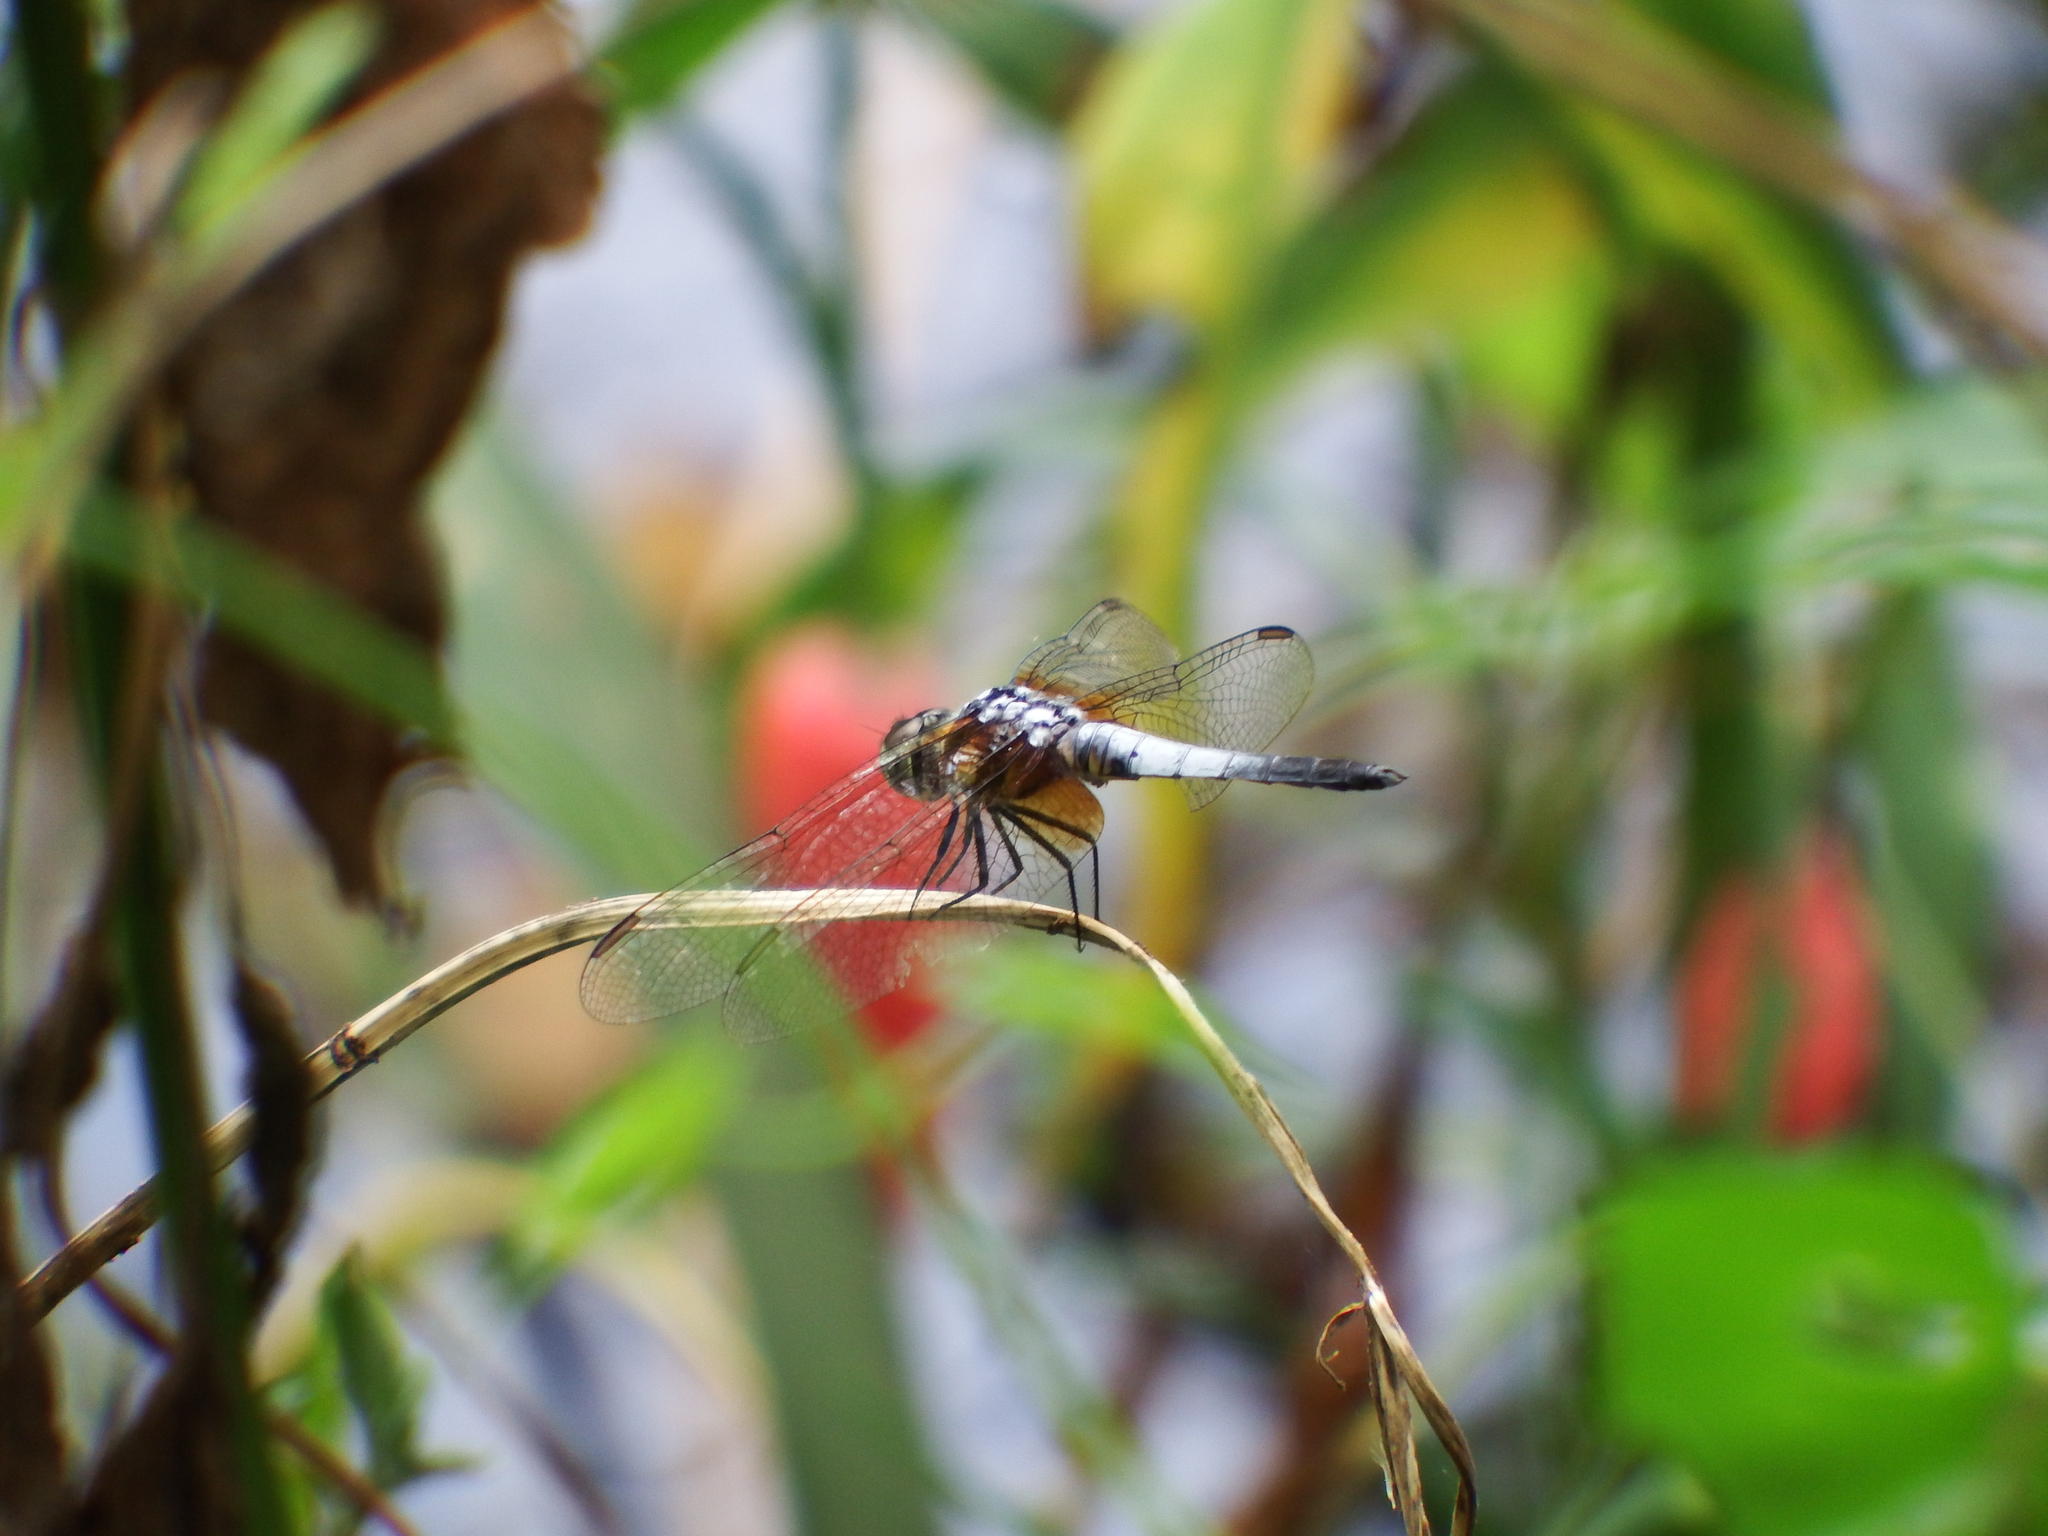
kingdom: Animalia
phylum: Arthropoda
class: Insecta
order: Odonata
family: Libellulidae
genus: Brachydiplax
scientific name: Brachydiplax chalybea
